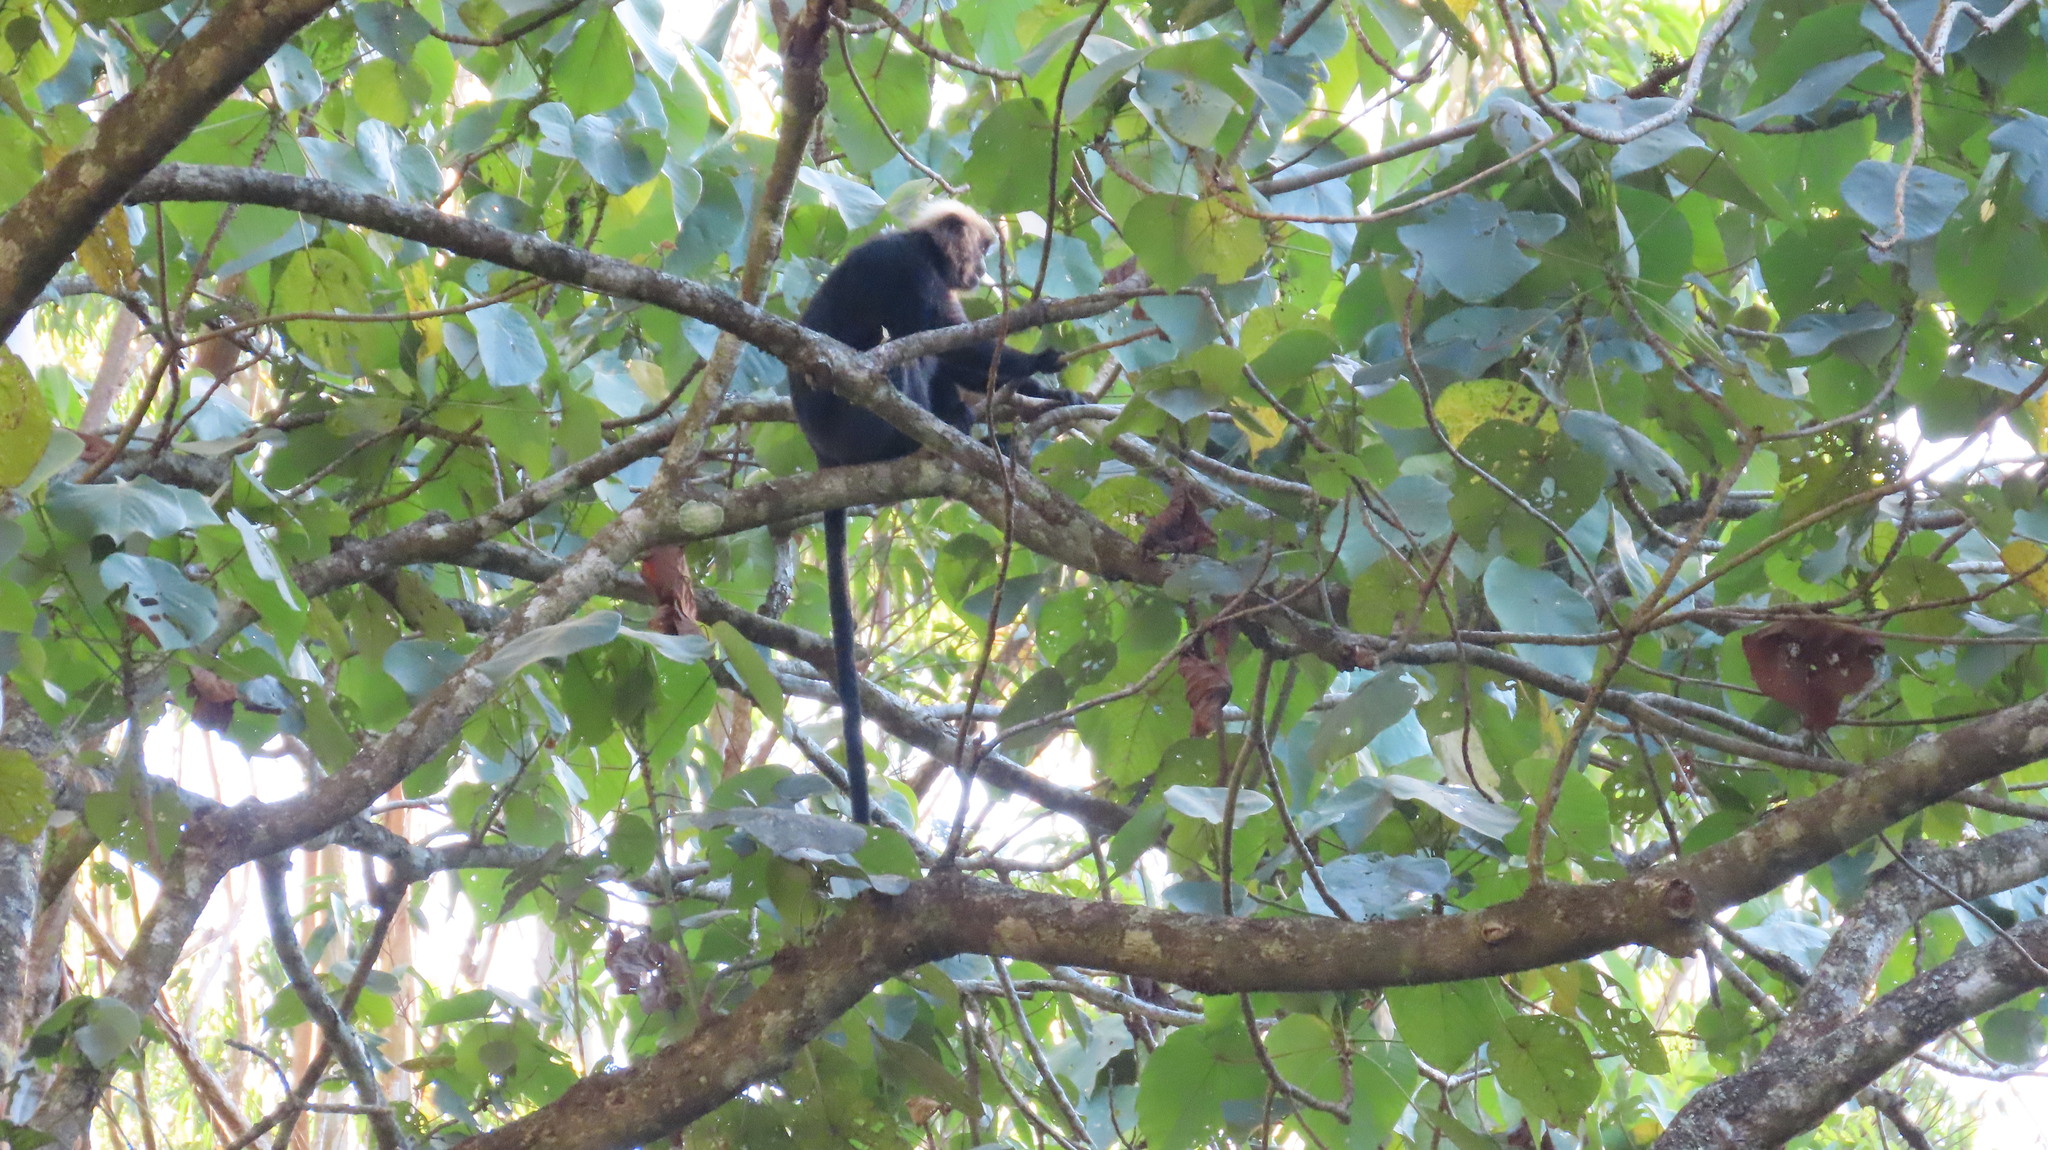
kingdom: Animalia
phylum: Chordata
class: Mammalia
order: Primates
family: Cercopithecidae
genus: Semnopithecus
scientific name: Semnopithecus johnii
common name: Nilgiri langur
